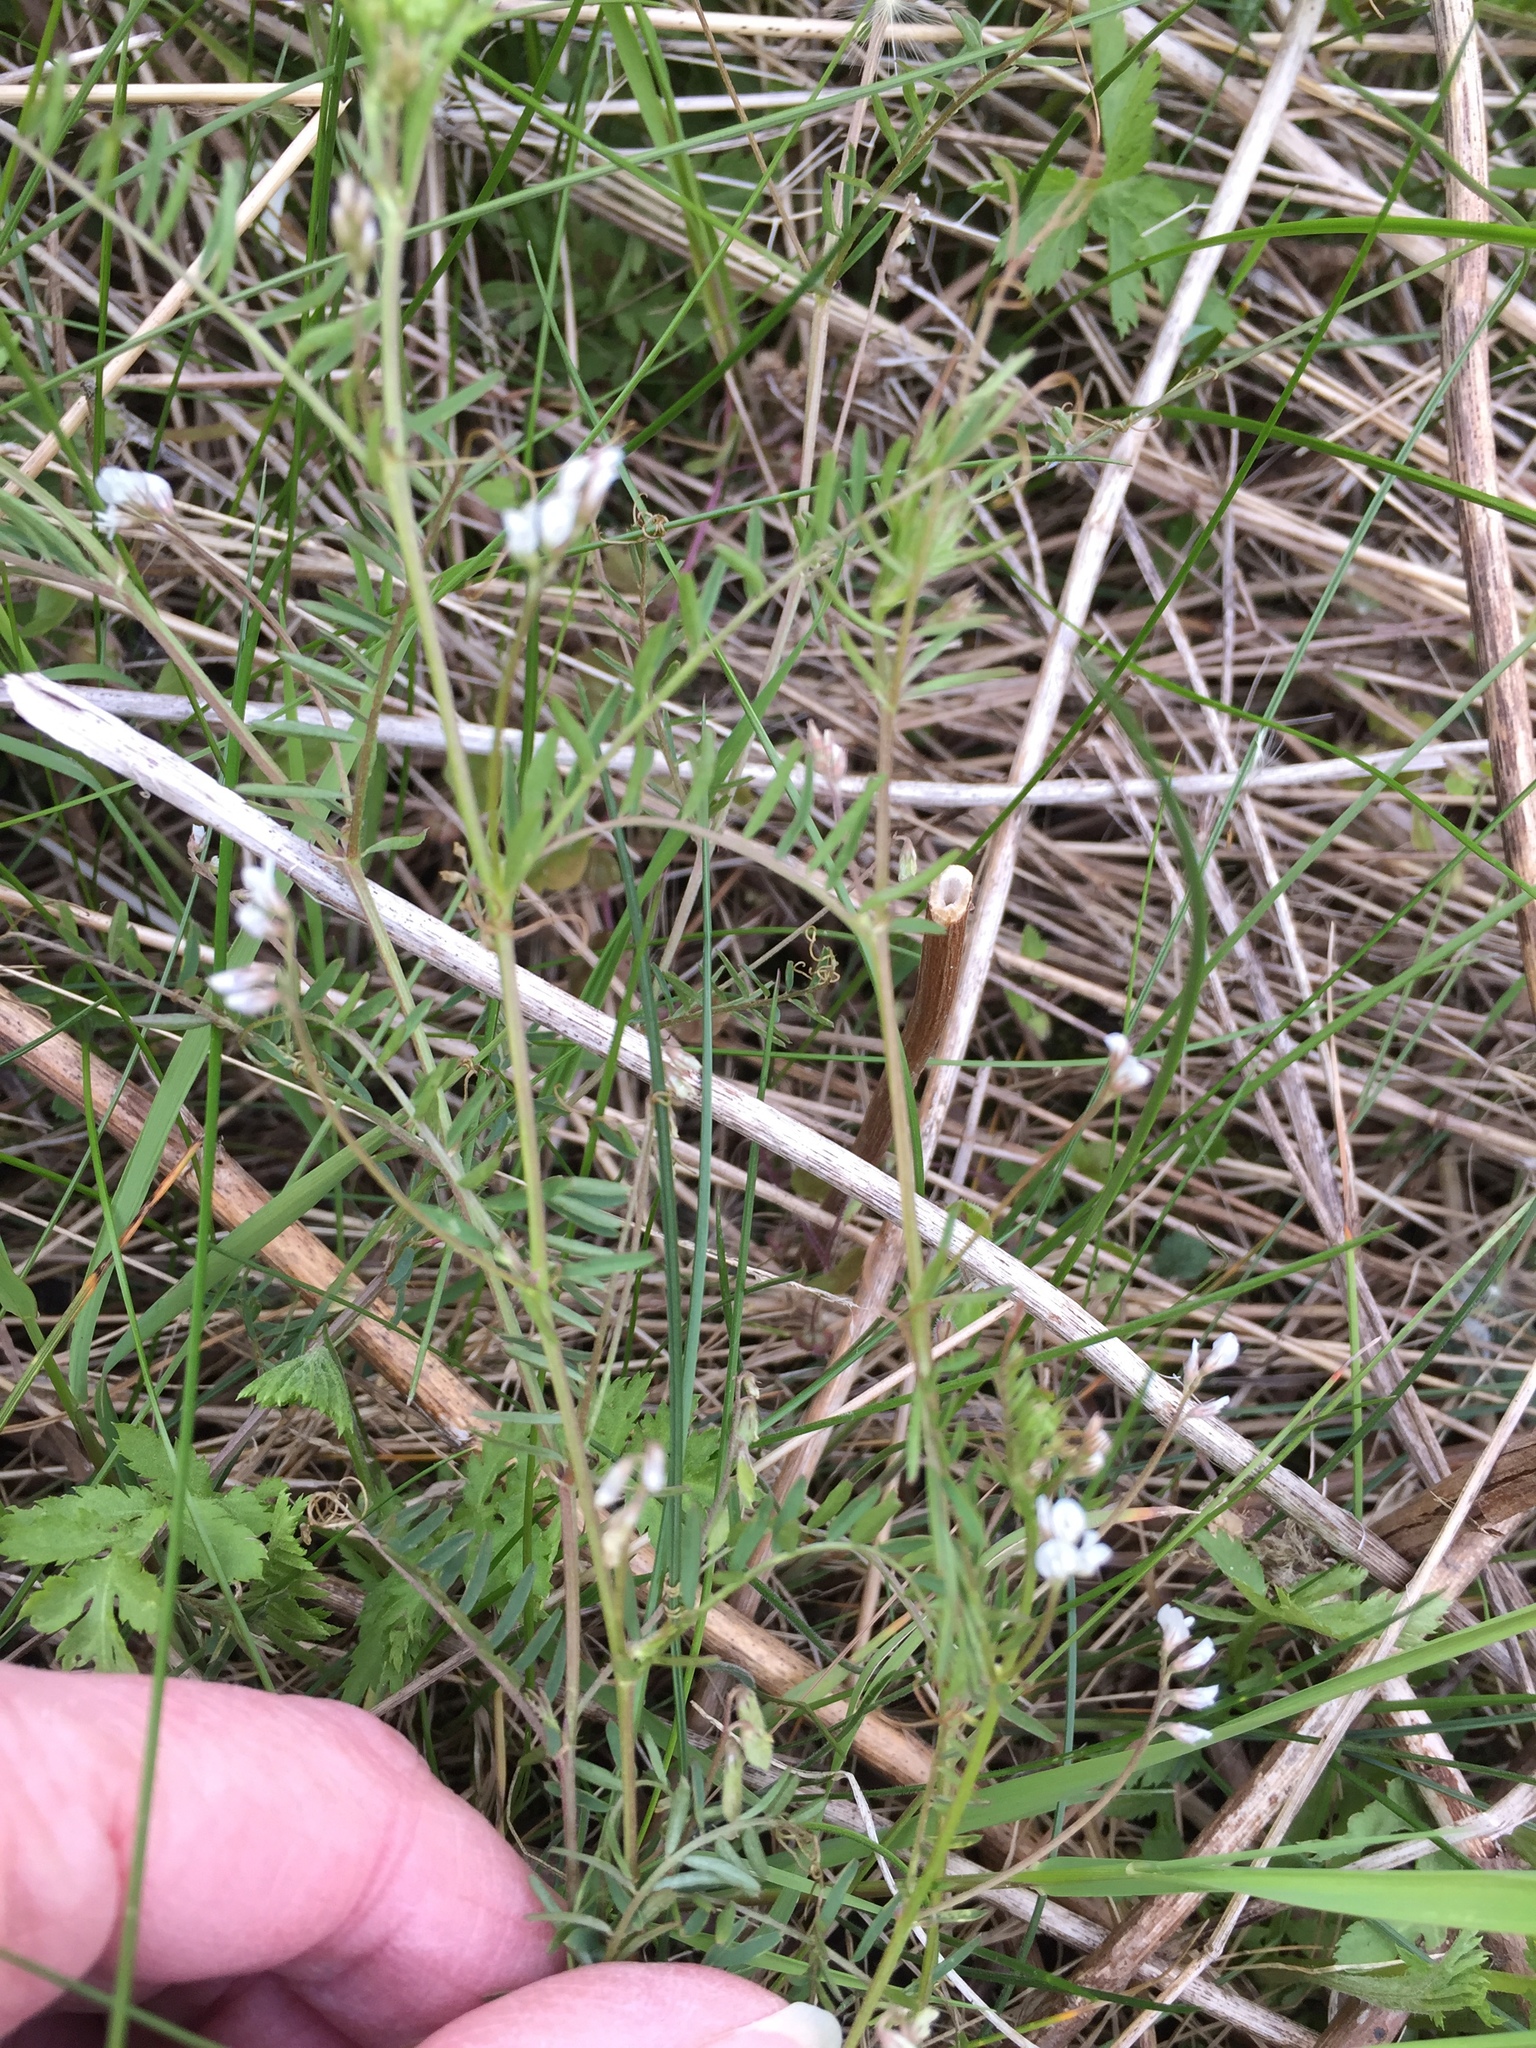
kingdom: Plantae
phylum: Tracheophyta
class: Magnoliopsida
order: Fabales
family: Fabaceae
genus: Vicia
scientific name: Vicia hirsuta
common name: Tiny vetch
